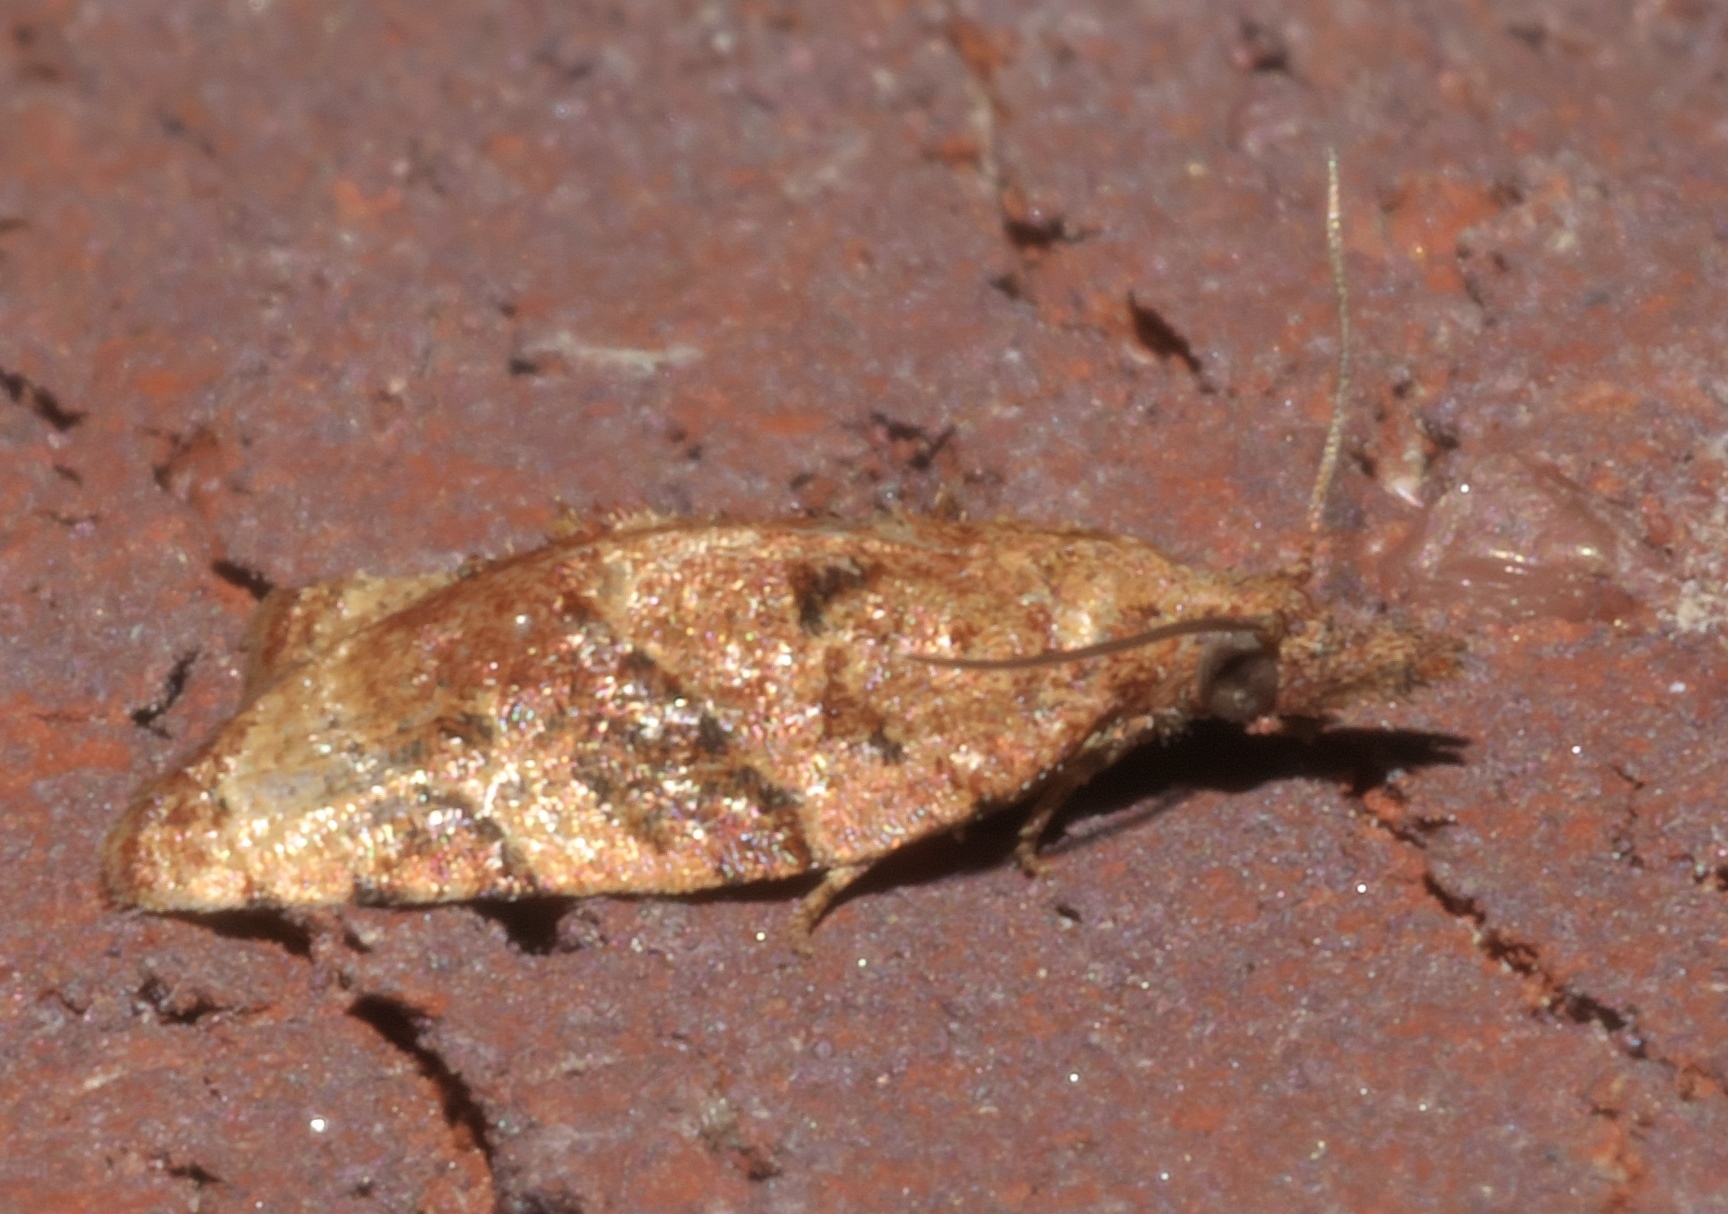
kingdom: Animalia
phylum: Arthropoda
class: Insecta
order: Lepidoptera
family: Tortricidae
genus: Platynota
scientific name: Platynota flavedana
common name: Black-shaded platynota moth
